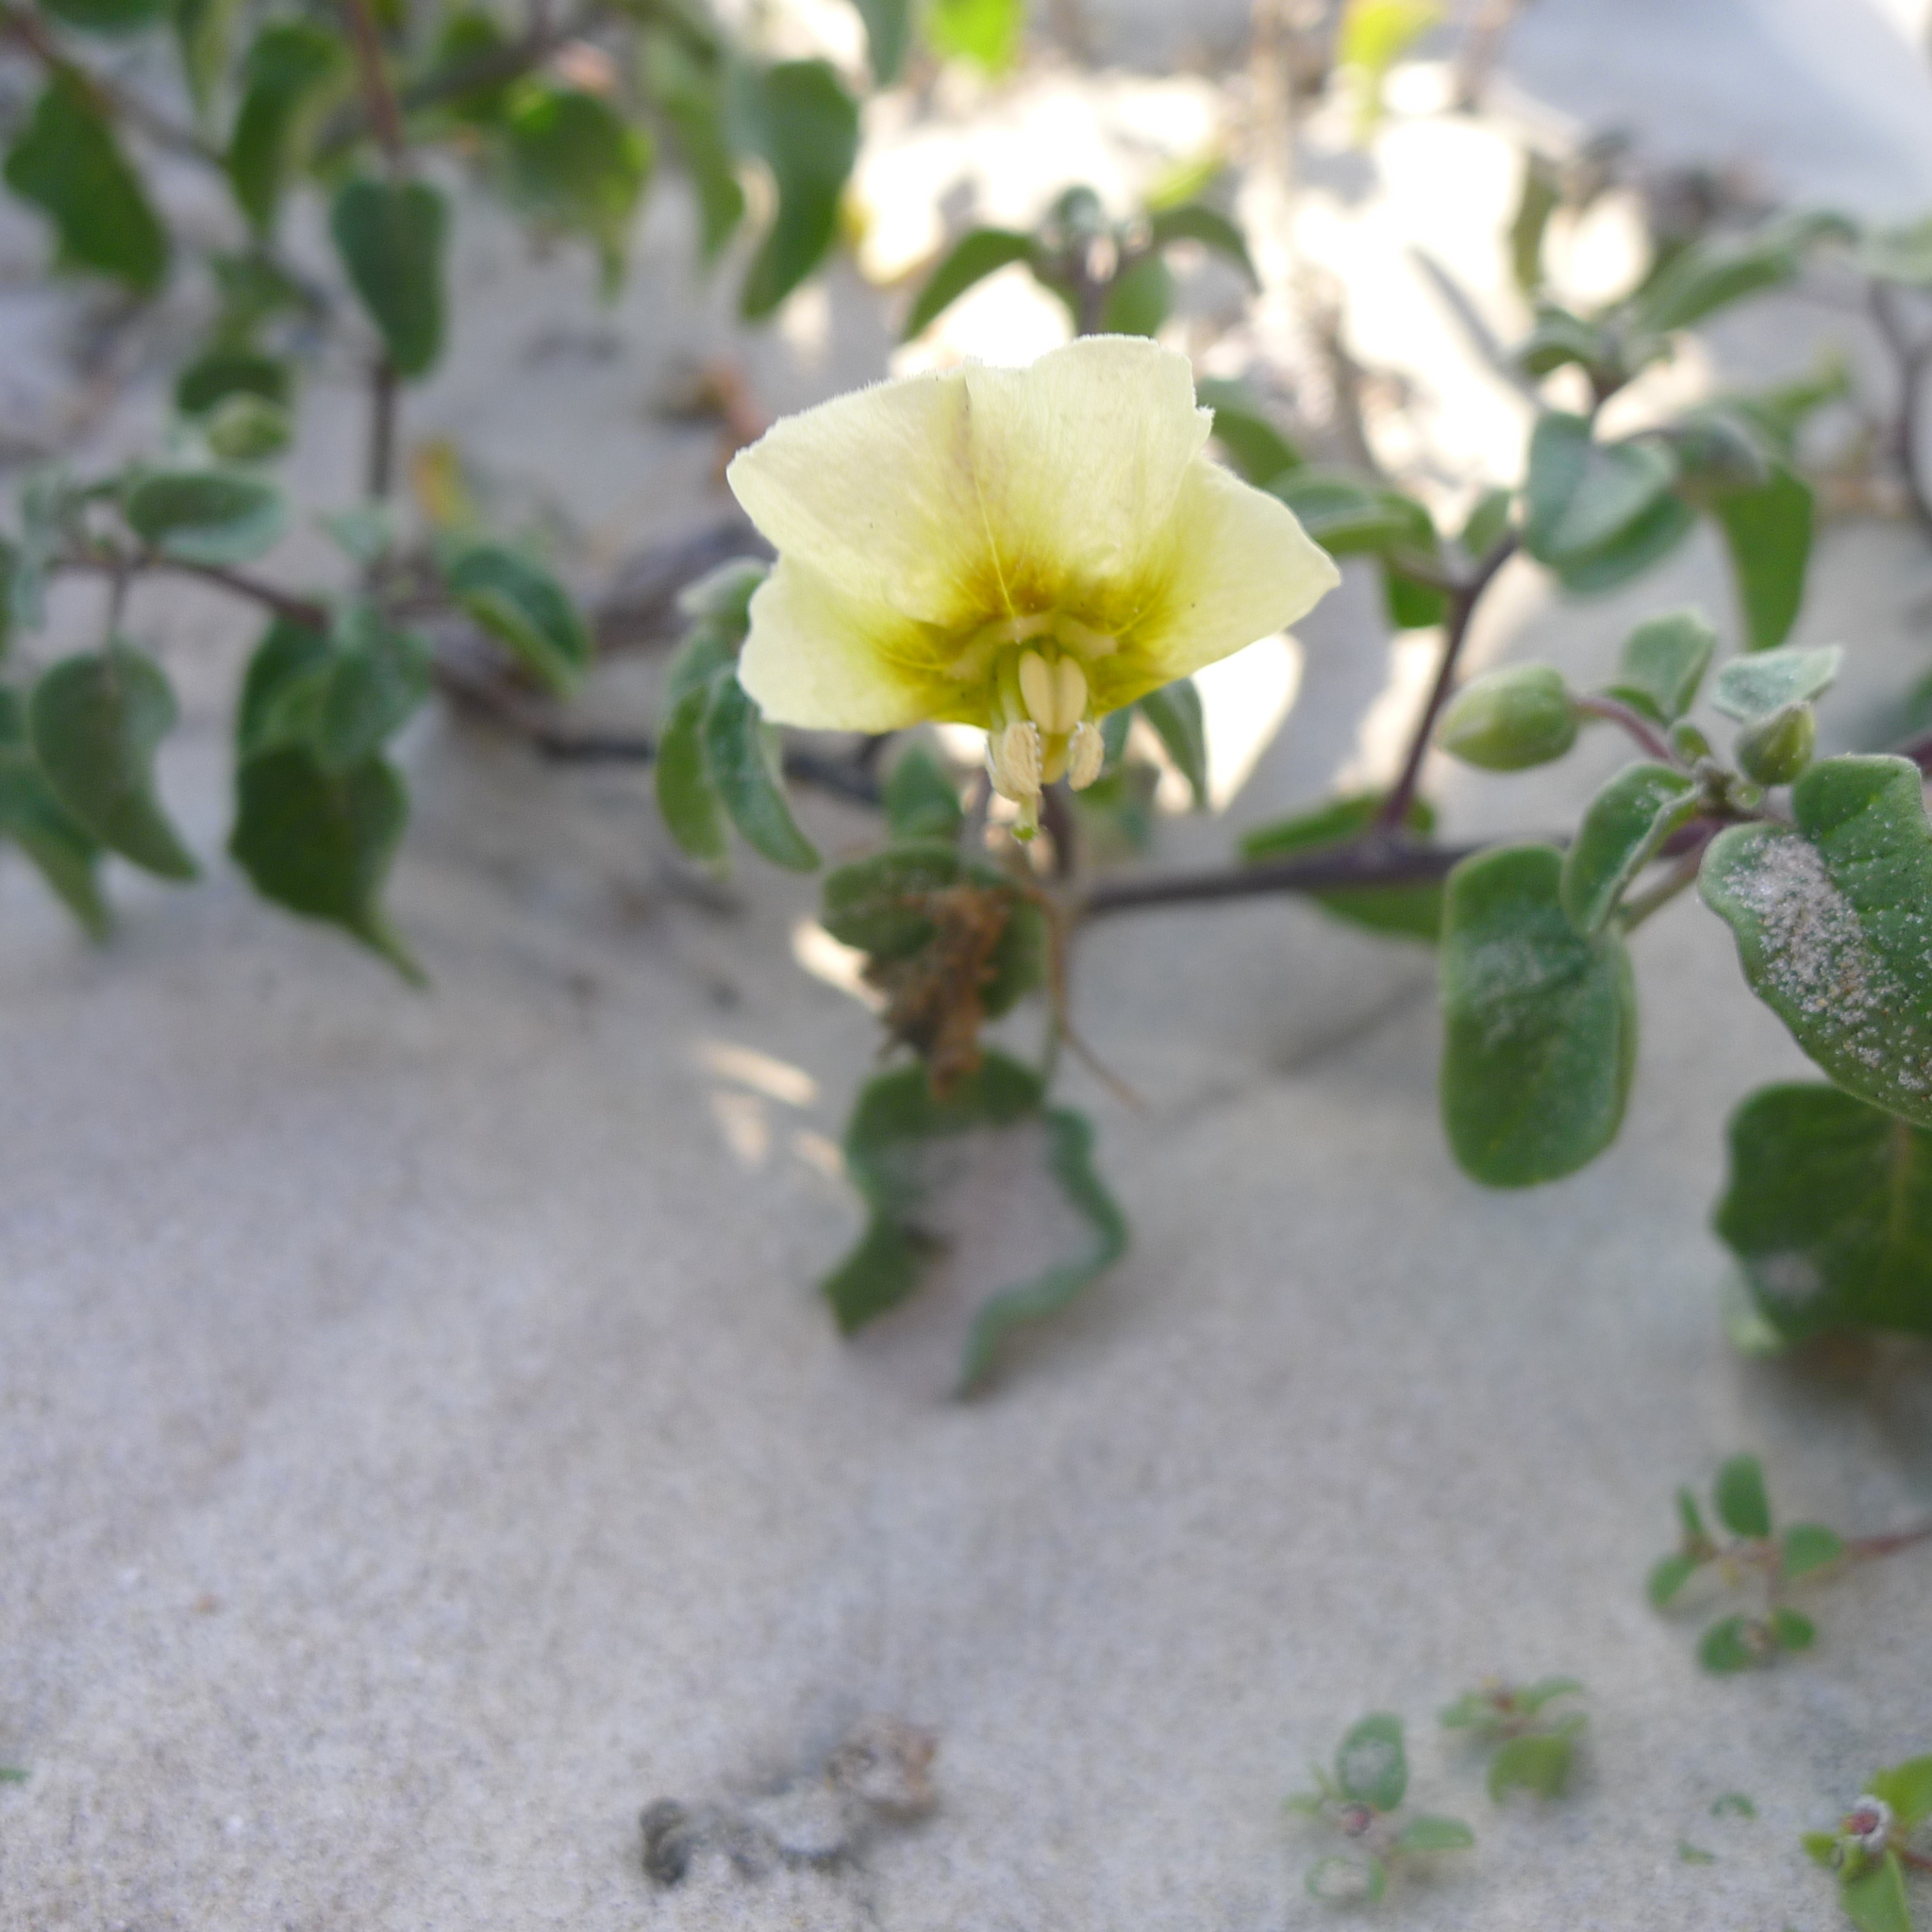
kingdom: Plantae
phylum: Tracheophyta
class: Magnoliopsida
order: Solanales
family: Solanaceae
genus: Physalis
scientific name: Physalis crassifolia
